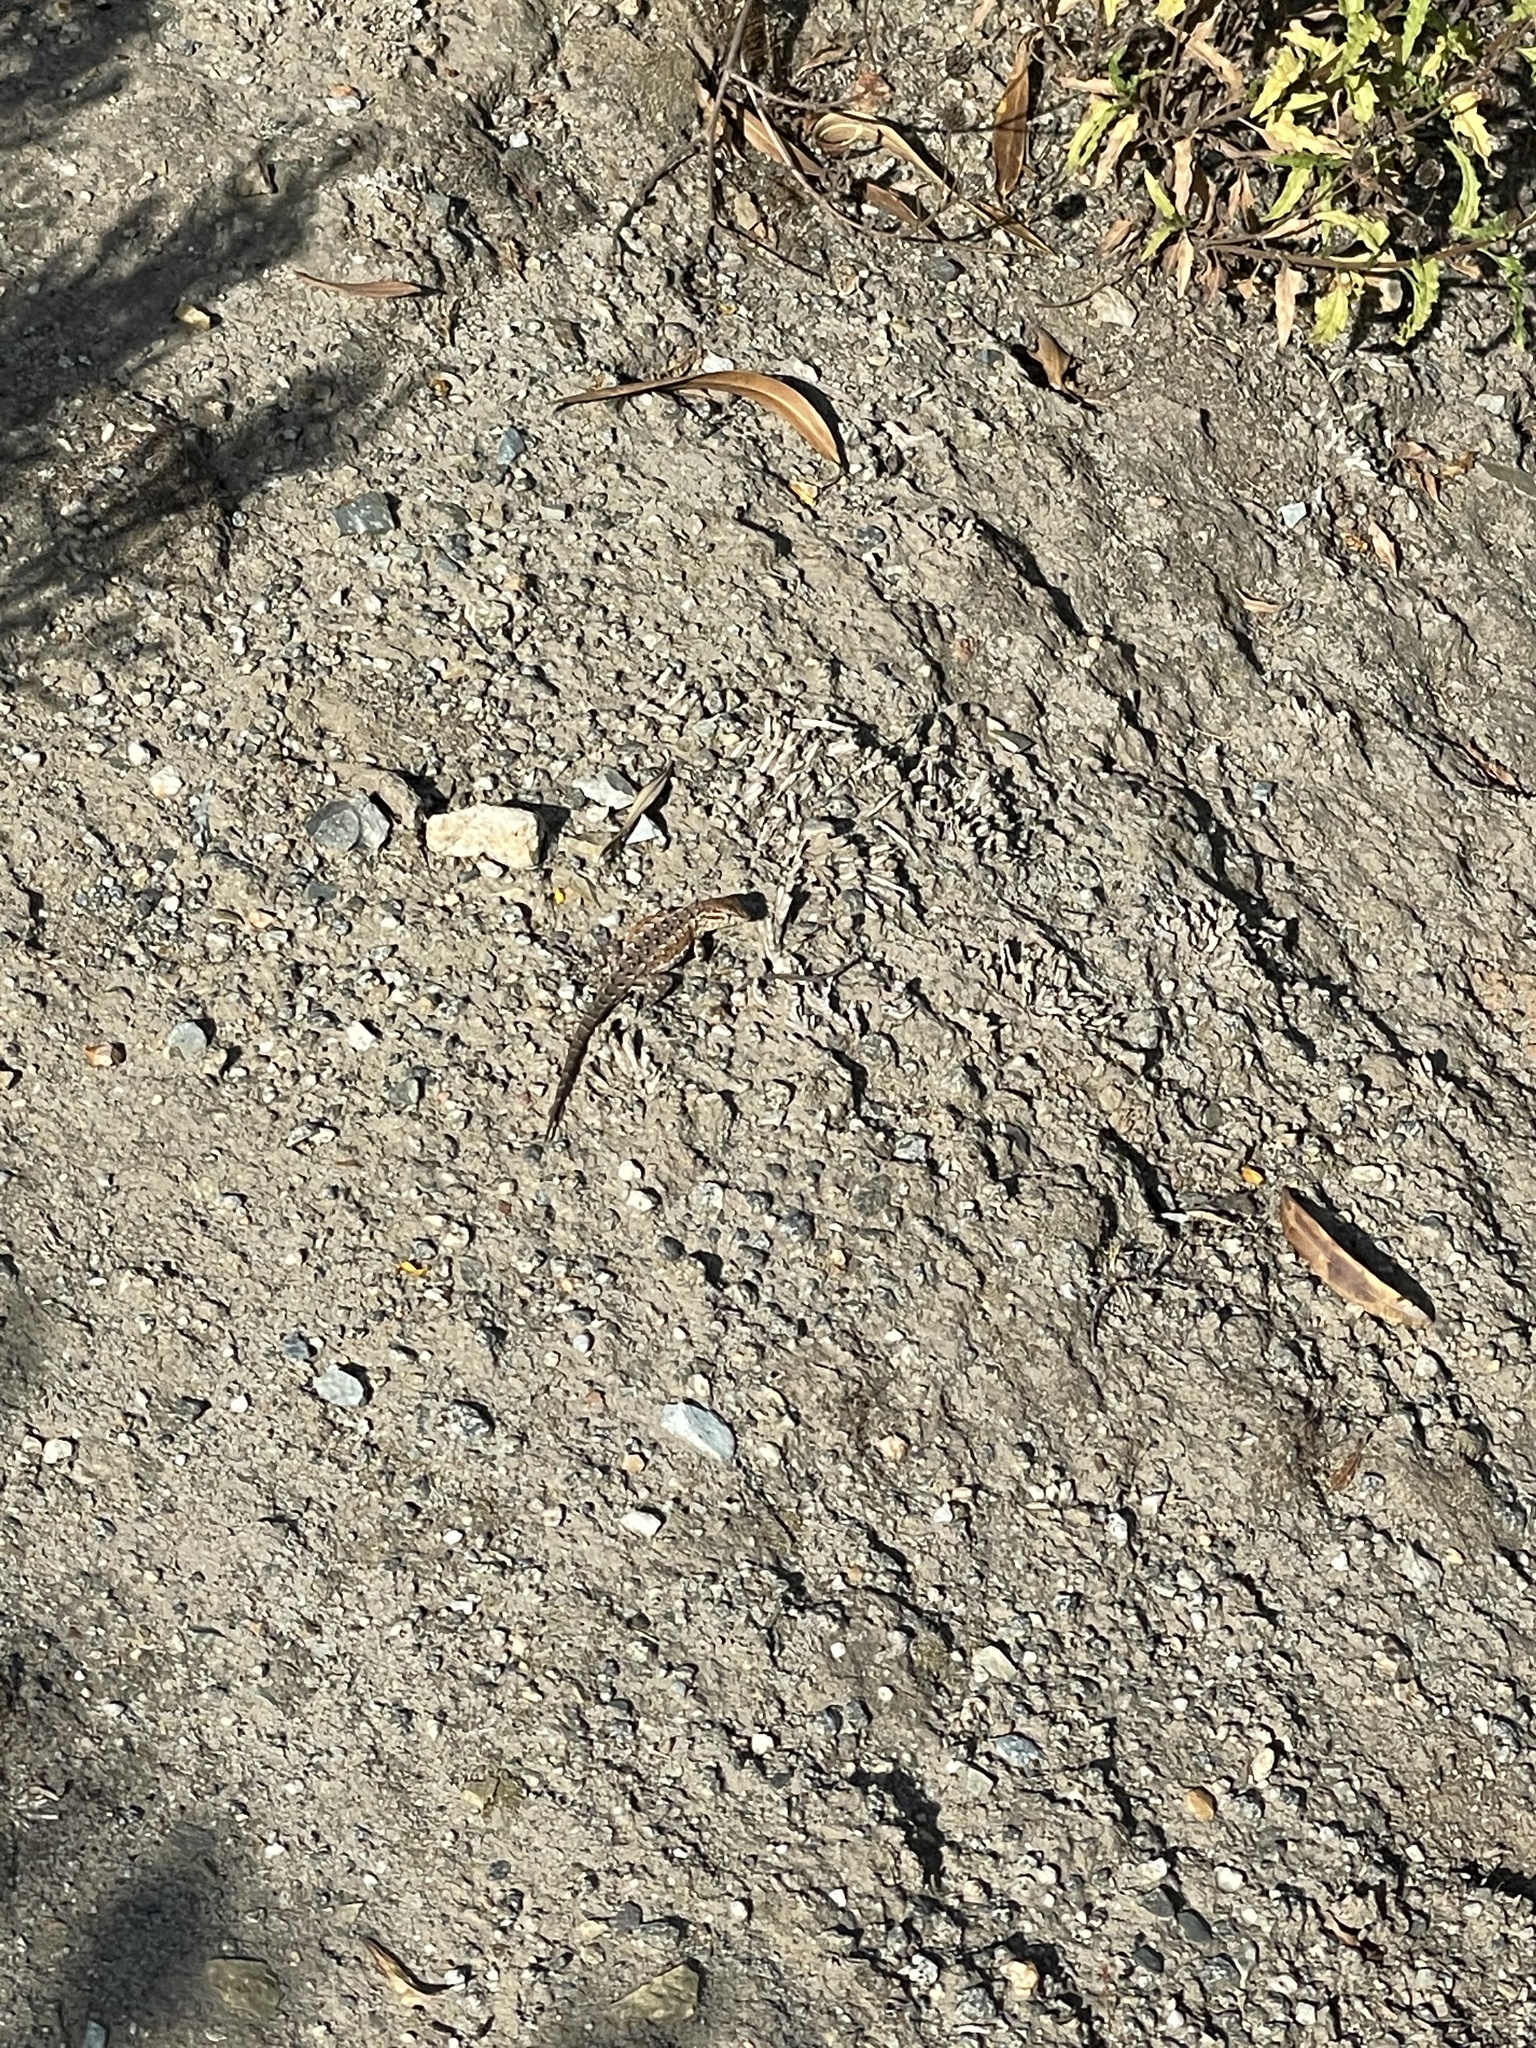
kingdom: Animalia
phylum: Chordata
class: Squamata
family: Phrynosomatidae
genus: Uta
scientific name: Uta stansburiana
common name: Side-blotched lizard
